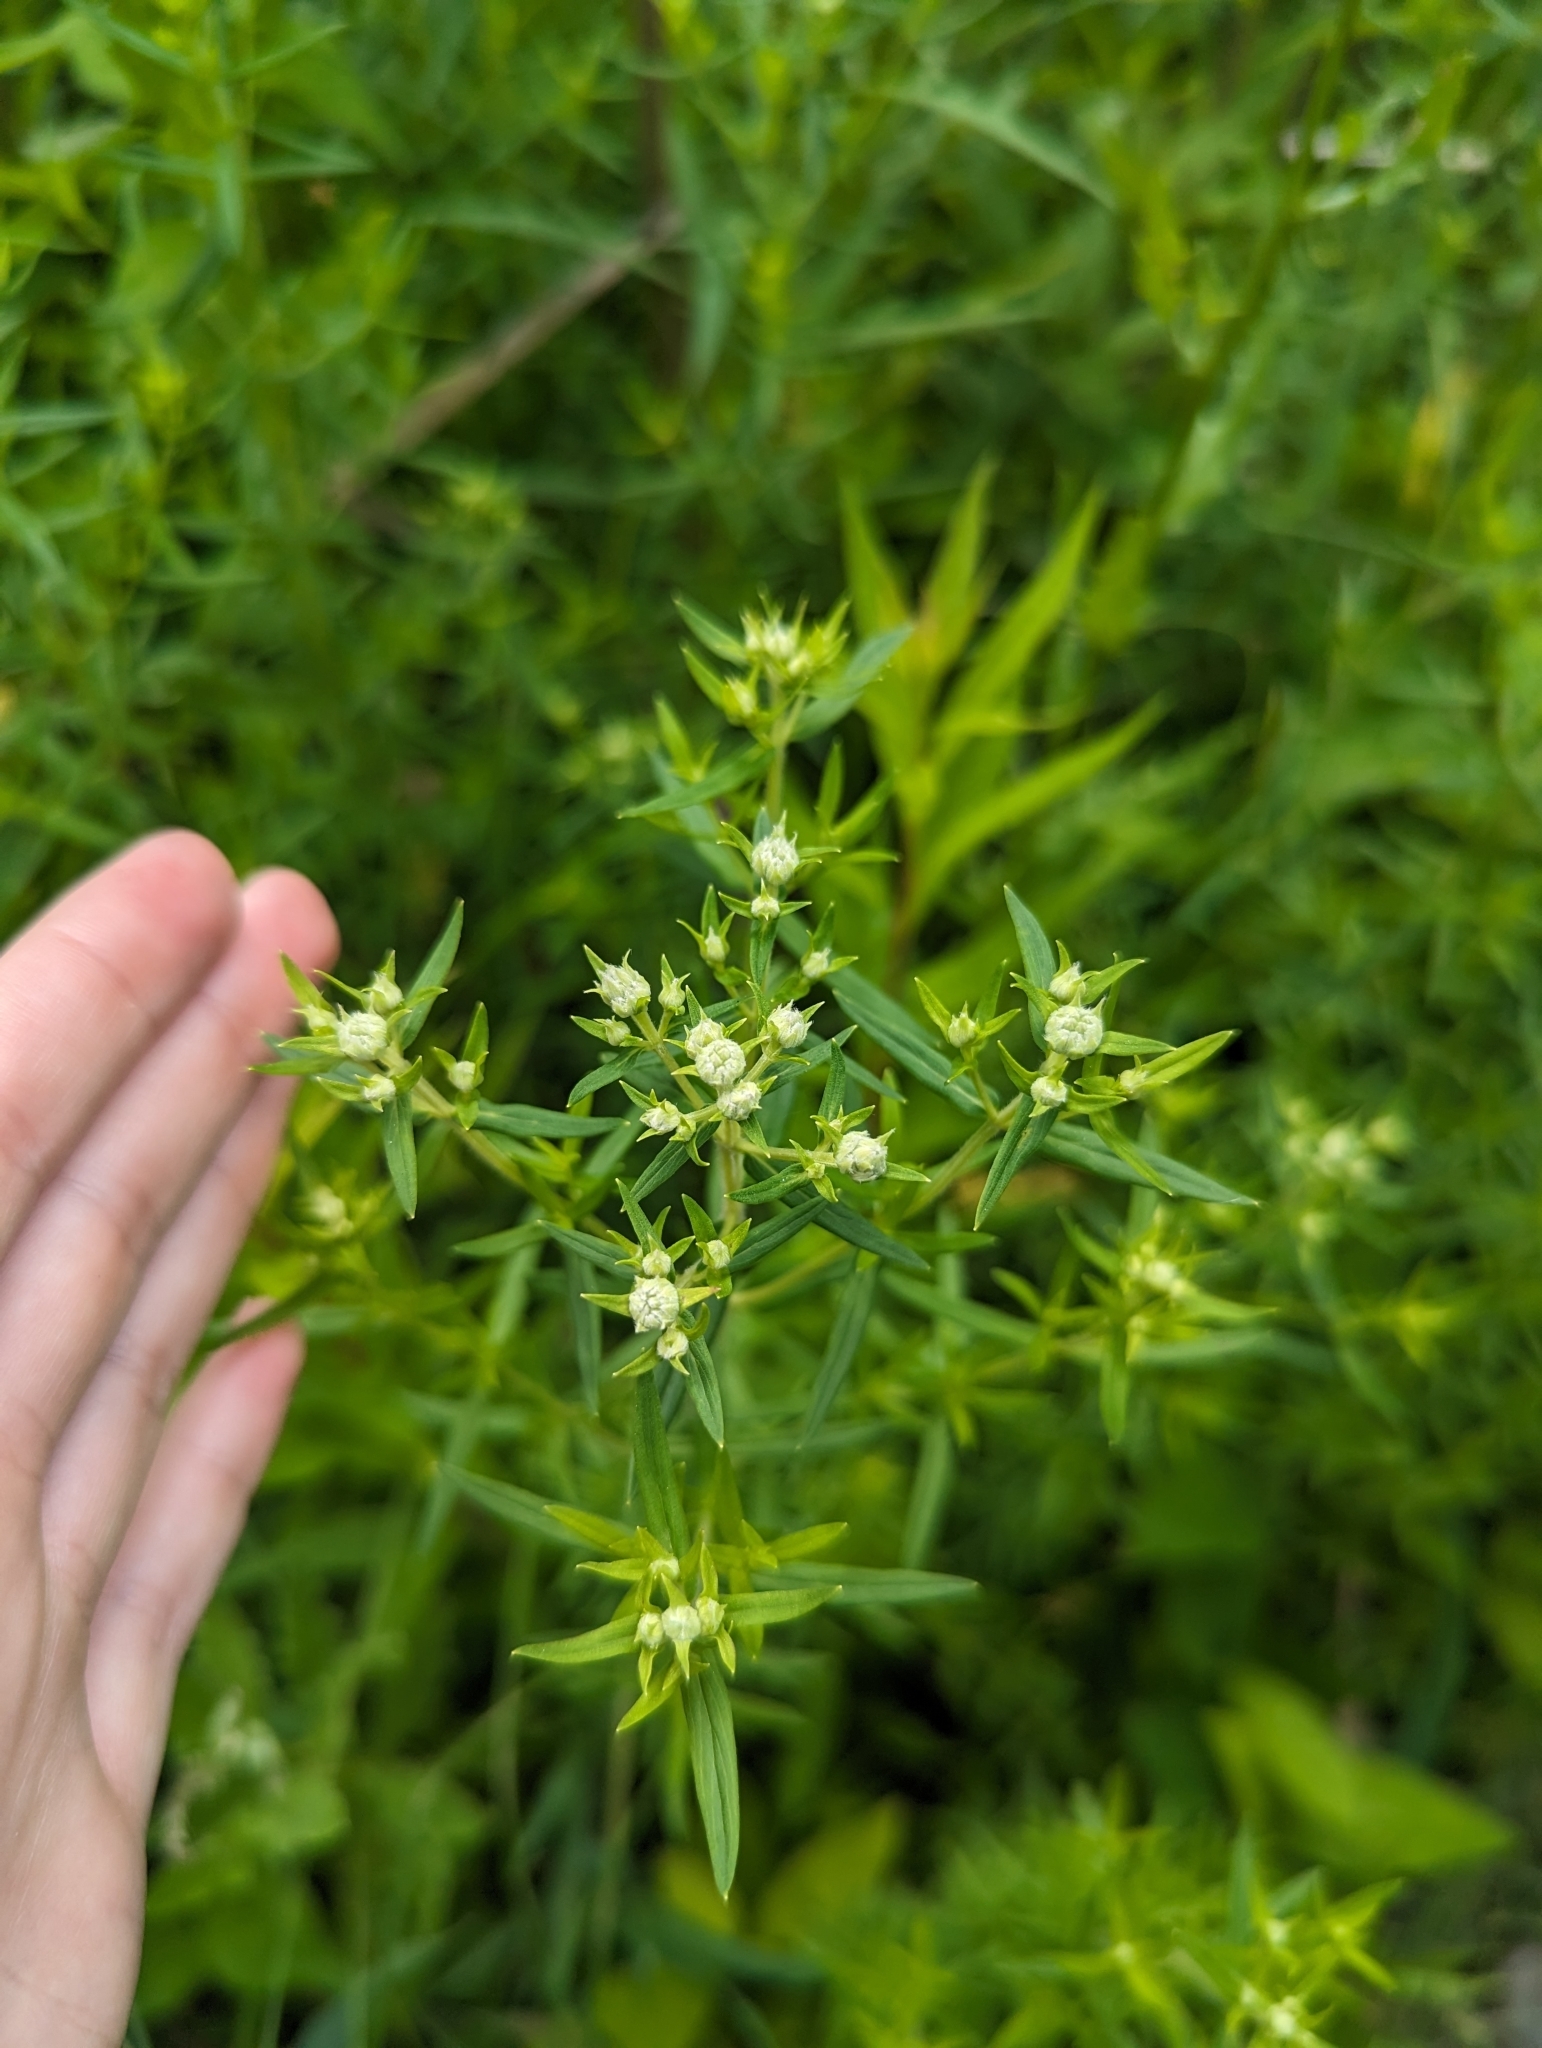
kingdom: Plantae
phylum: Tracheophyta
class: Magnoliopsida
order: Lamiales
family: Lamiaceae
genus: Pycnanthemum
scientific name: Pycnanthemum virginianum
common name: Virginia mountain-mint
